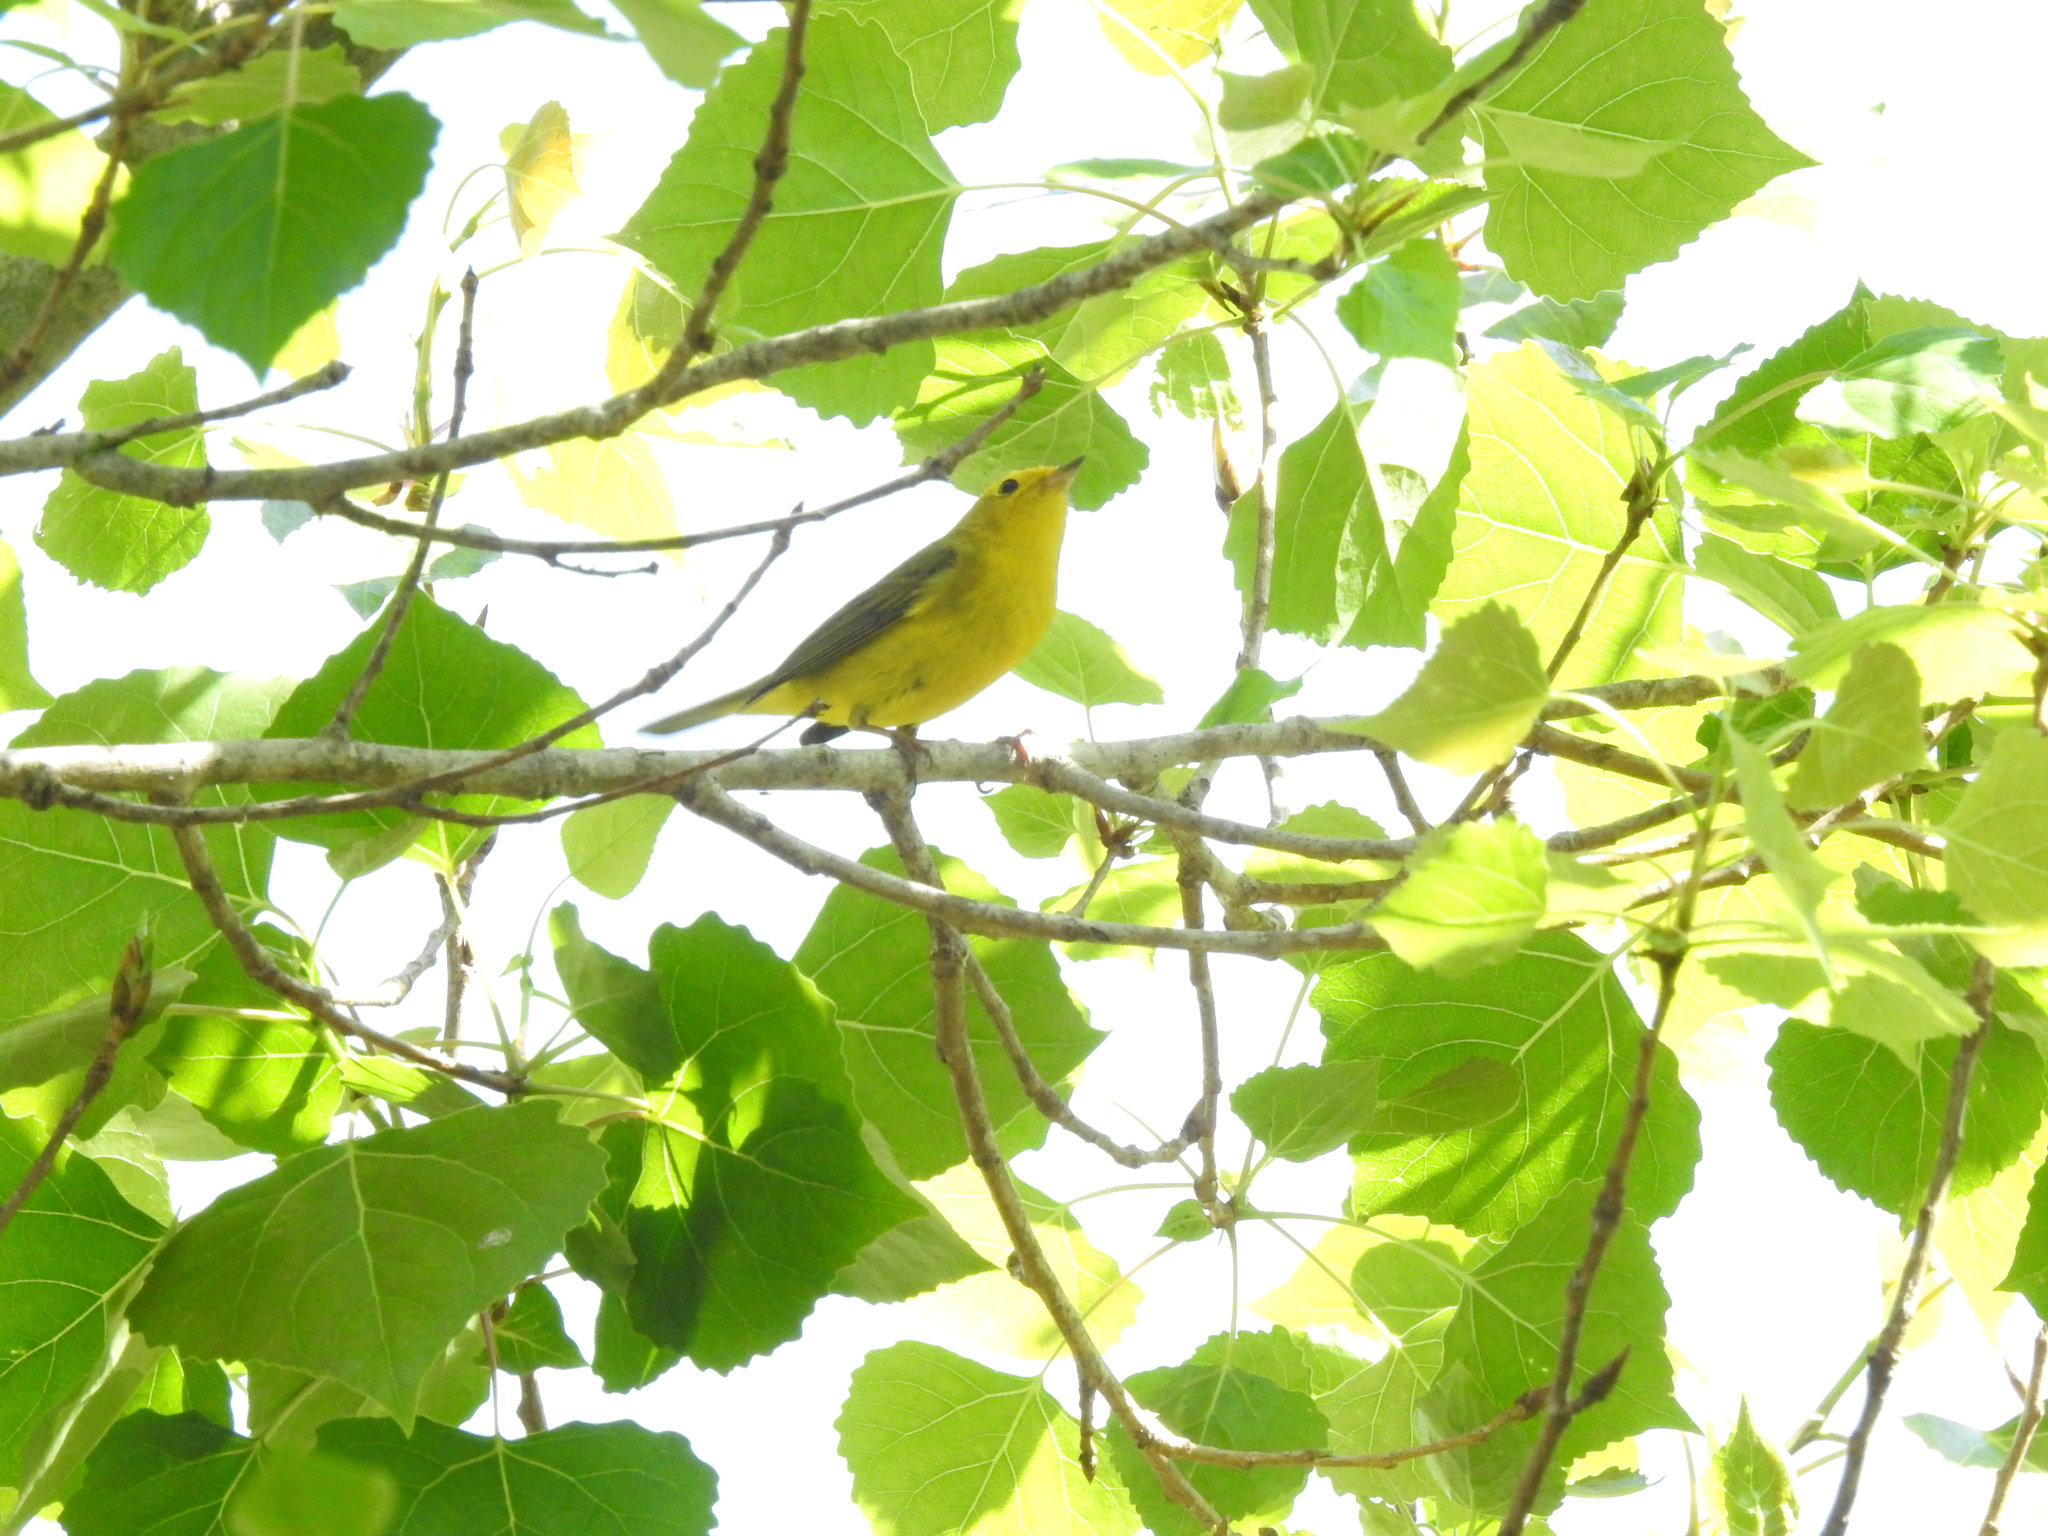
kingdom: Animalia
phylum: Chordata
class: Aves
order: Passeriformes
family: Parulidae
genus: Cardellina
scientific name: Cardellina pusilla
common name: Wilson's warbler
